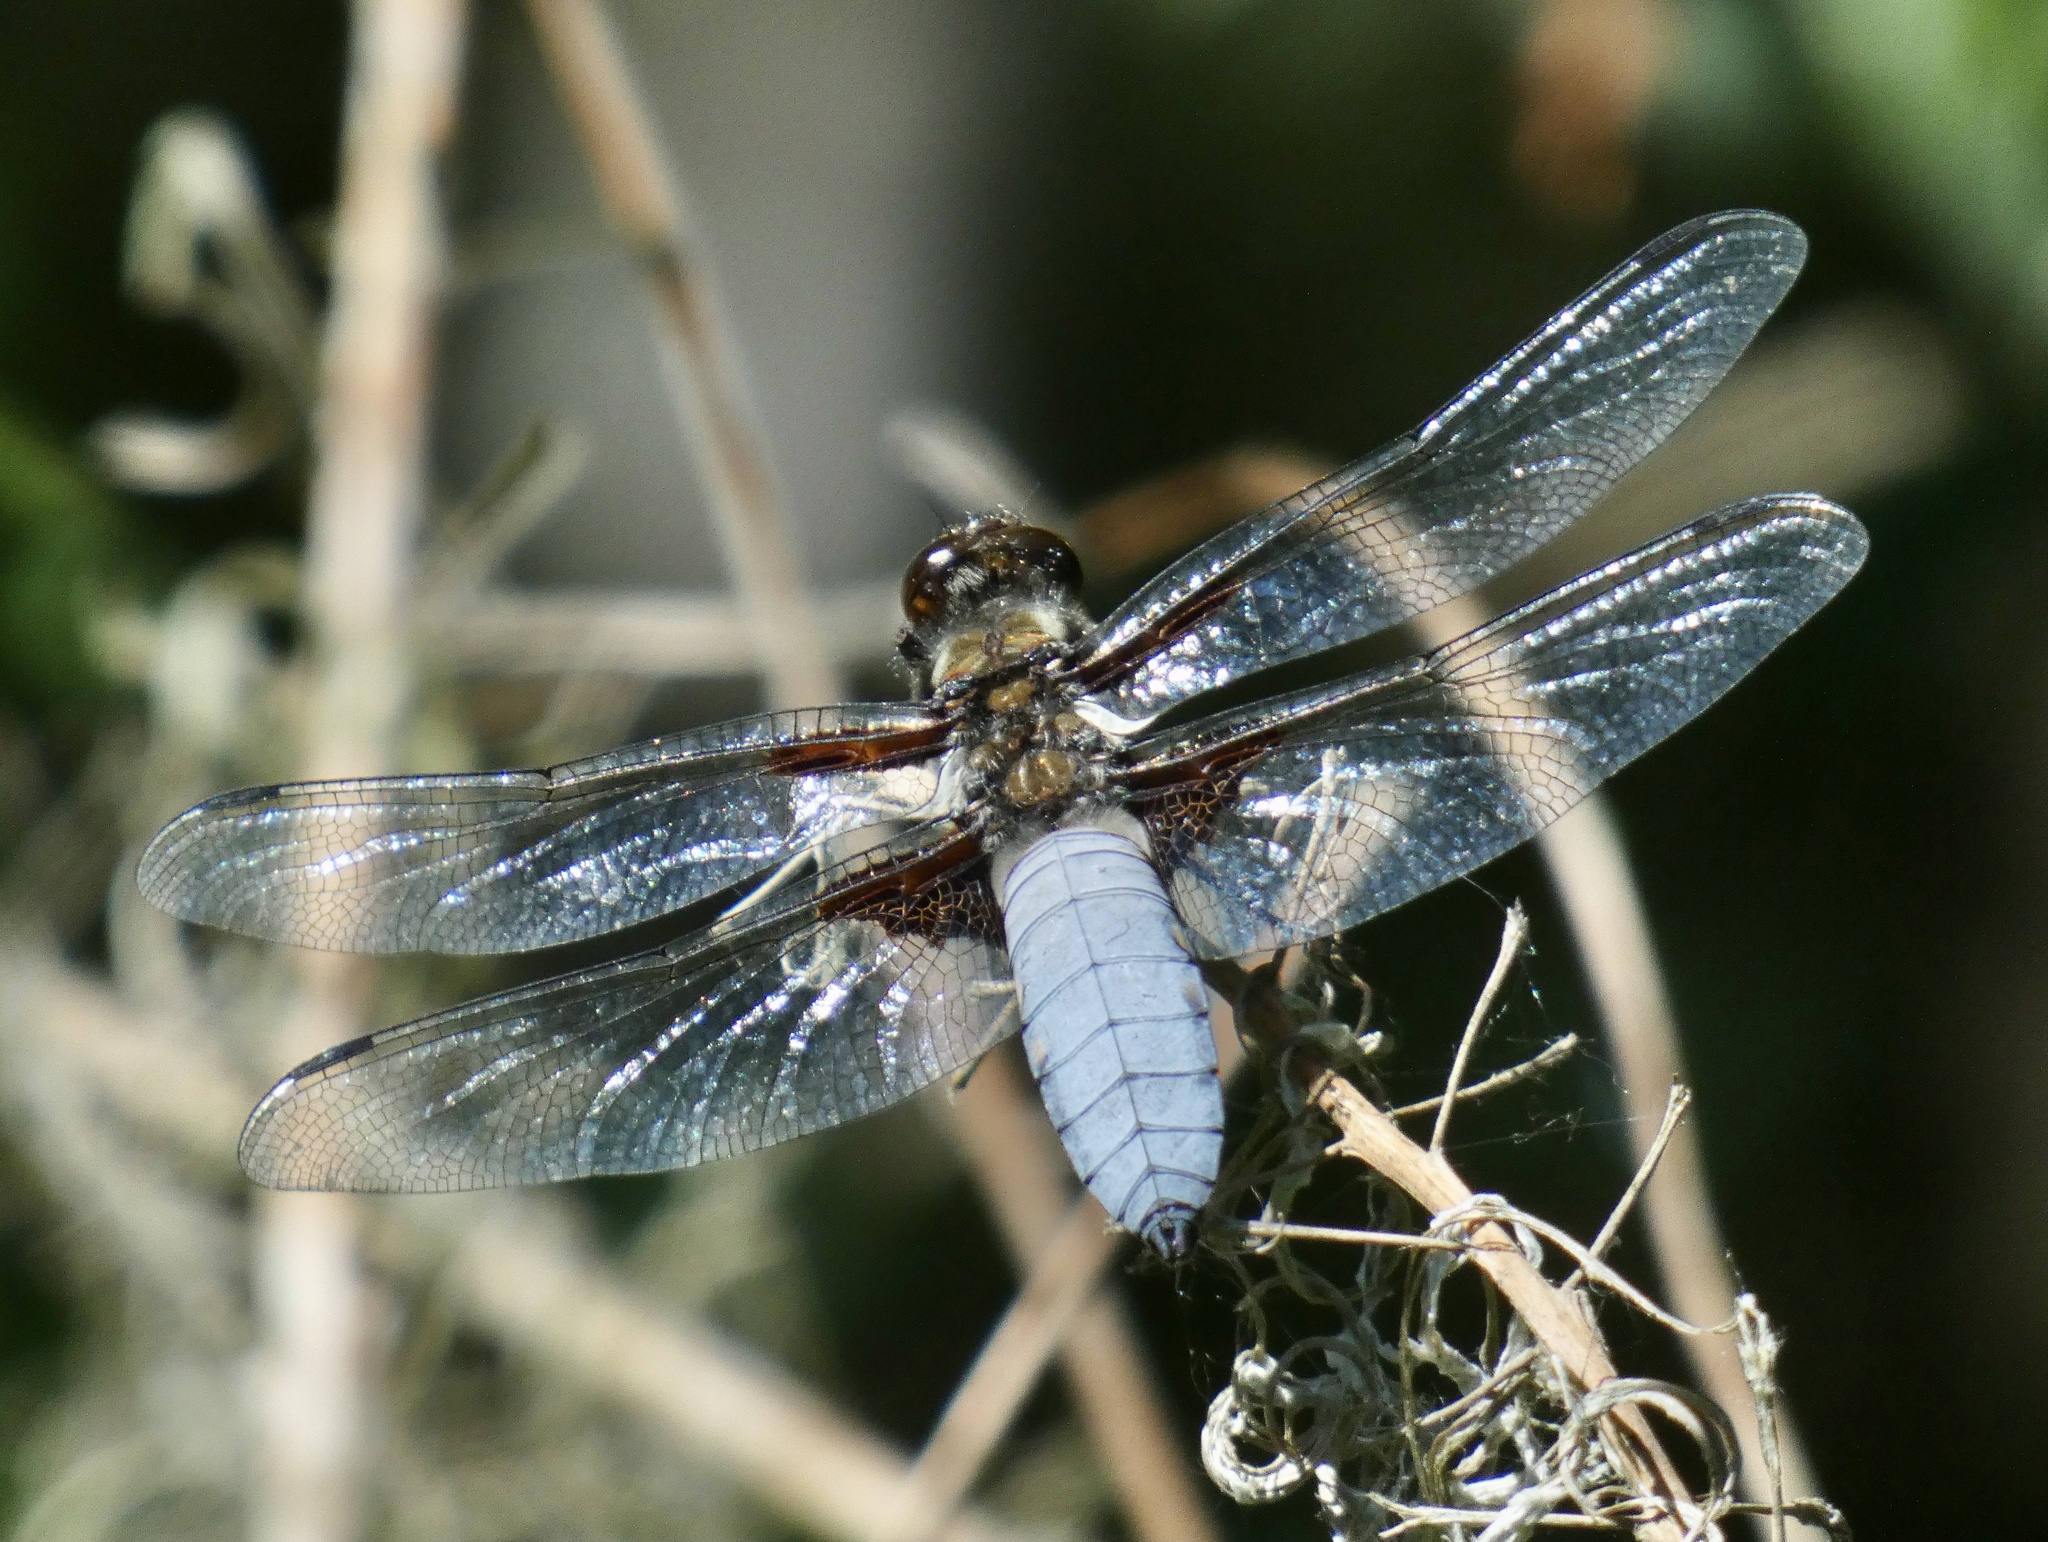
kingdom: Animalia
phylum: Arthropoda
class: Insecta
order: Odonata
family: Libellulidae
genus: Libellula
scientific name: Libellula depressa
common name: Broad-bodied chaser
